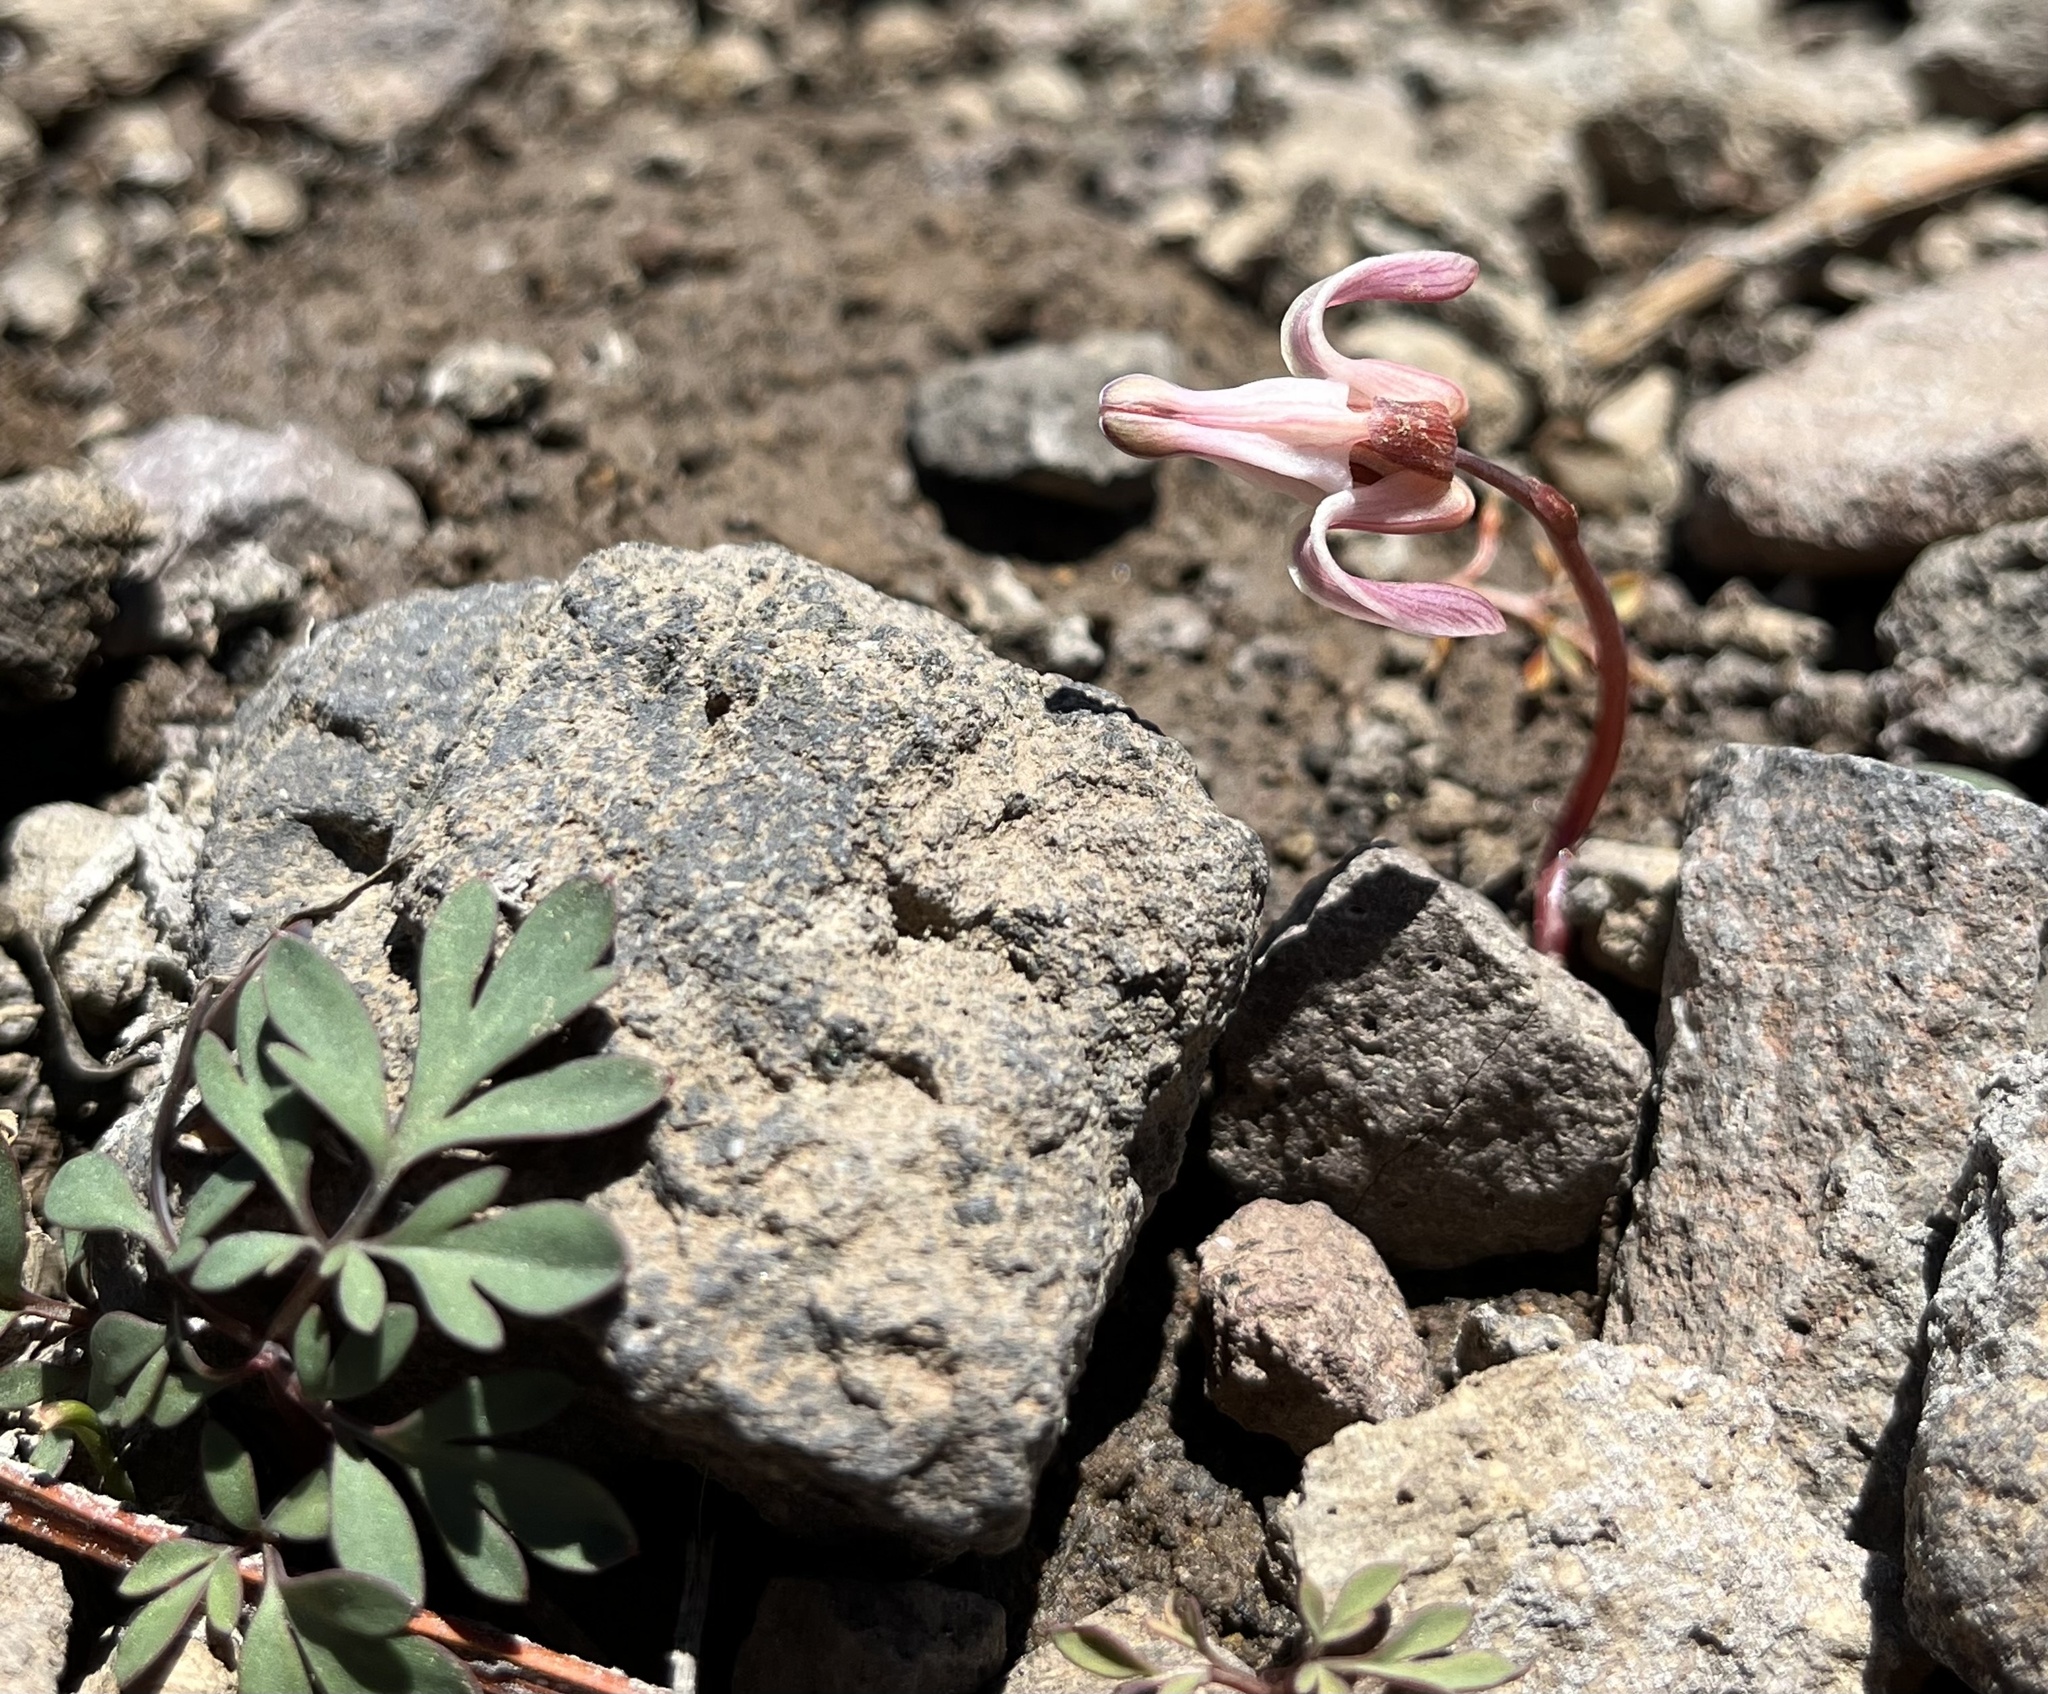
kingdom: Plantae
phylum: Tracheophyta
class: Magnoliopsida
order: Ranunculales
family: Papaveraceae
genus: Dicentra
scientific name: Dicentra uniflora
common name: Steer's-head
